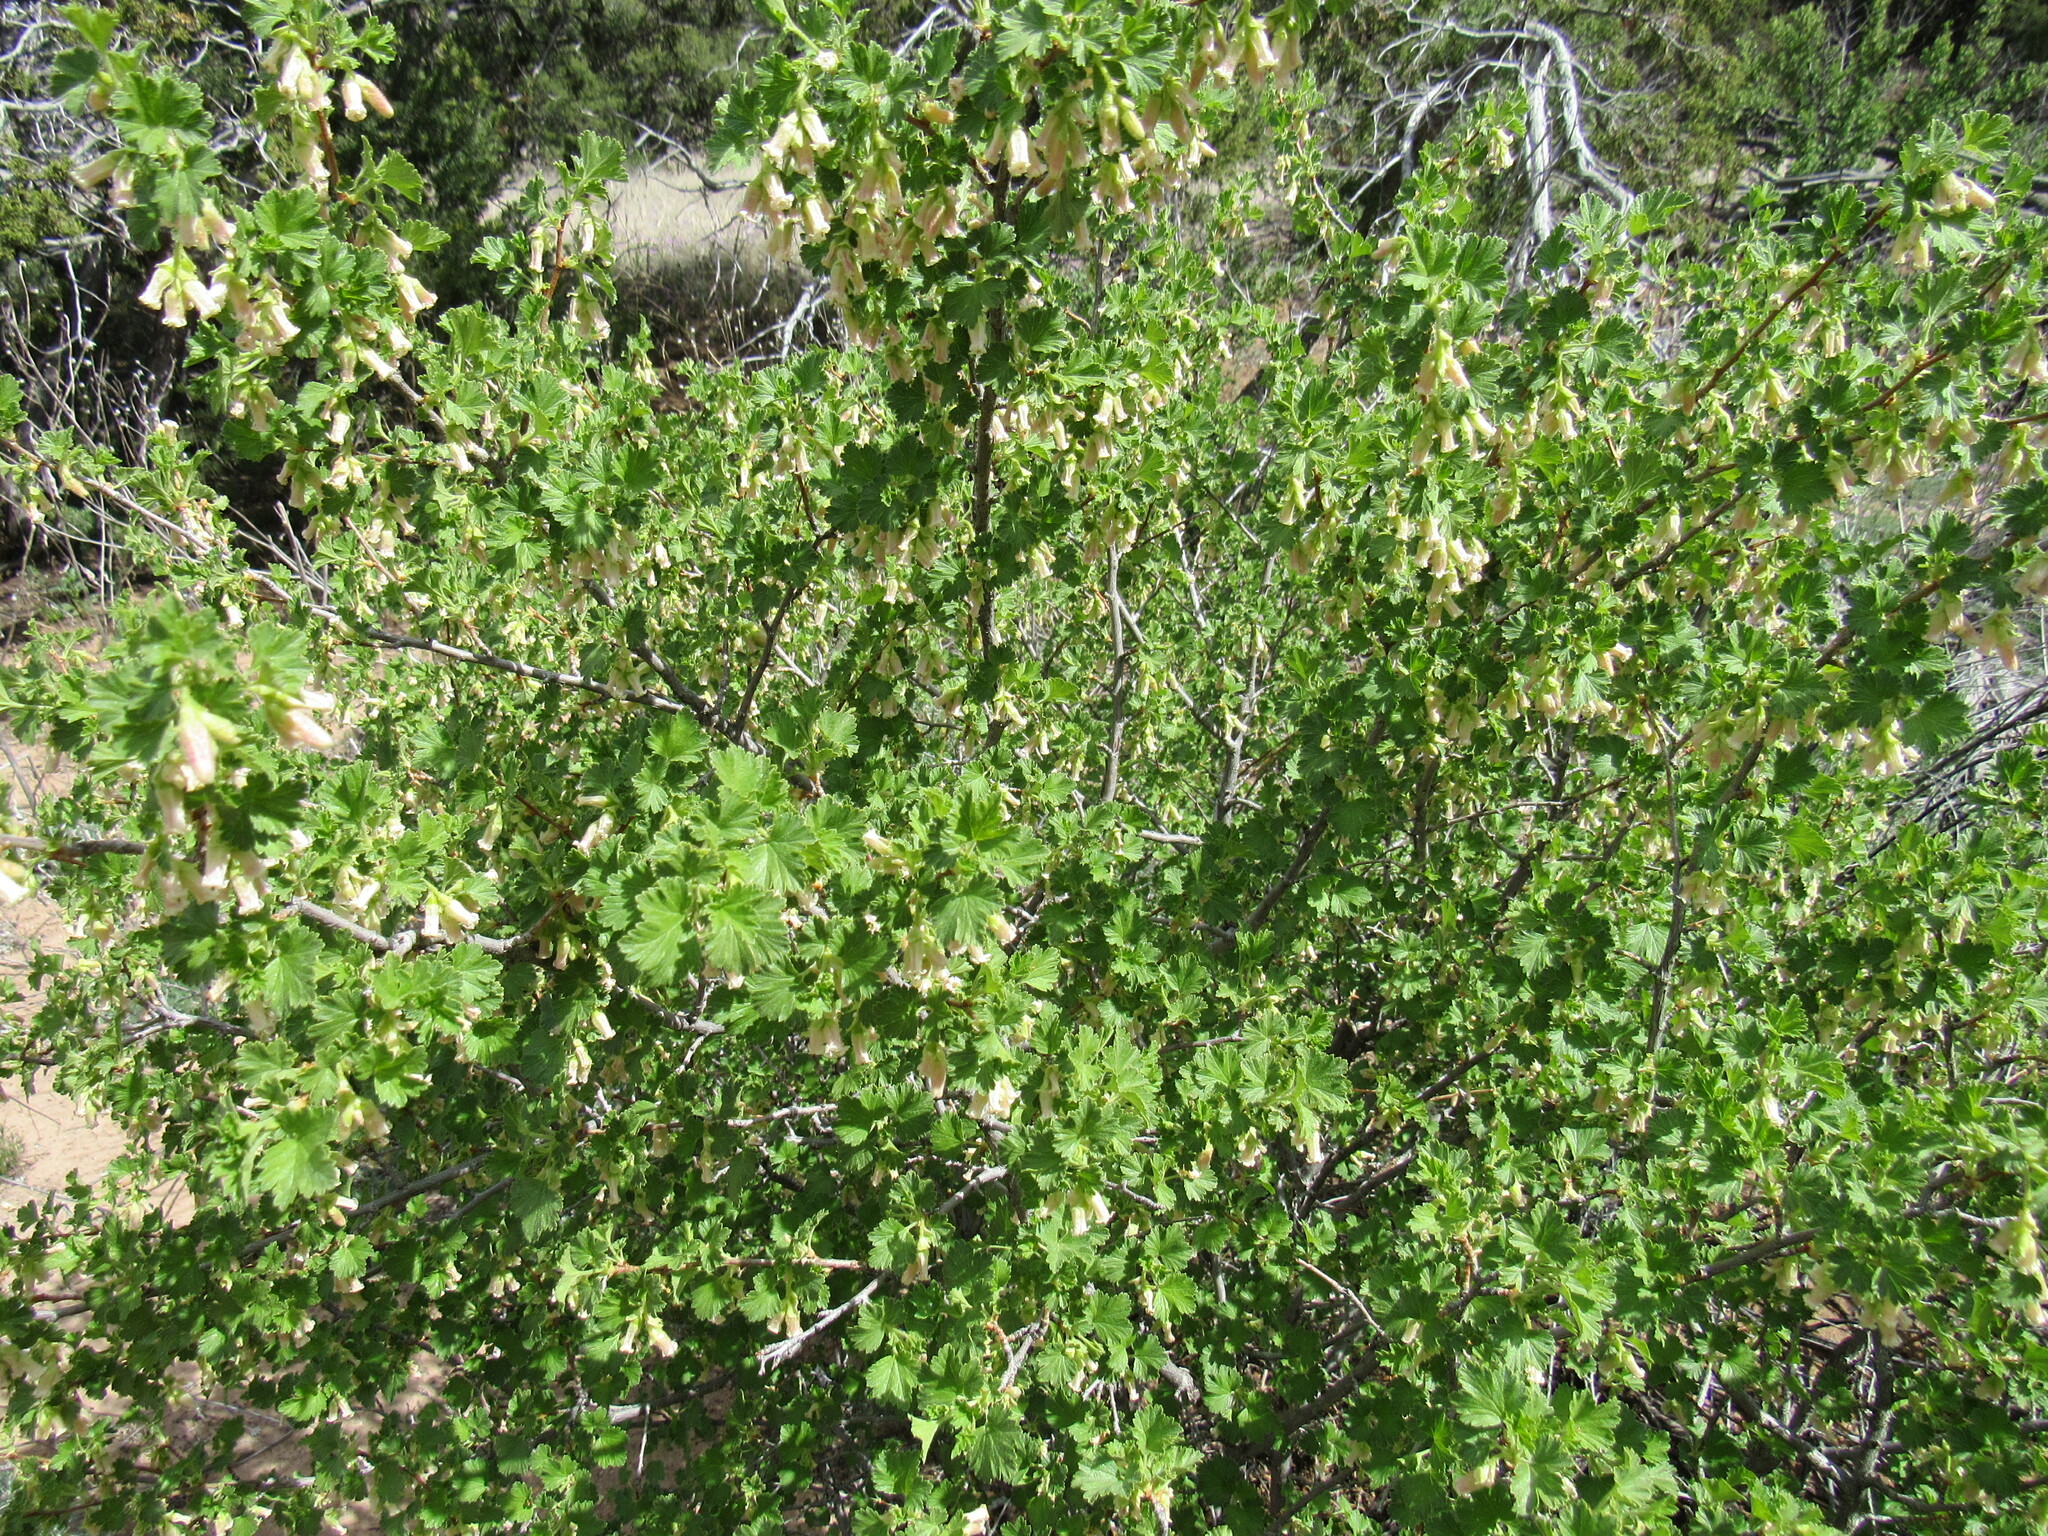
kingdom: Plantae
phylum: Tracheophyta
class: Magnoliopsida
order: Saxifragales
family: Grossulariaceae
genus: Ribes
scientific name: Ribes cereum
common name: Wax currant
